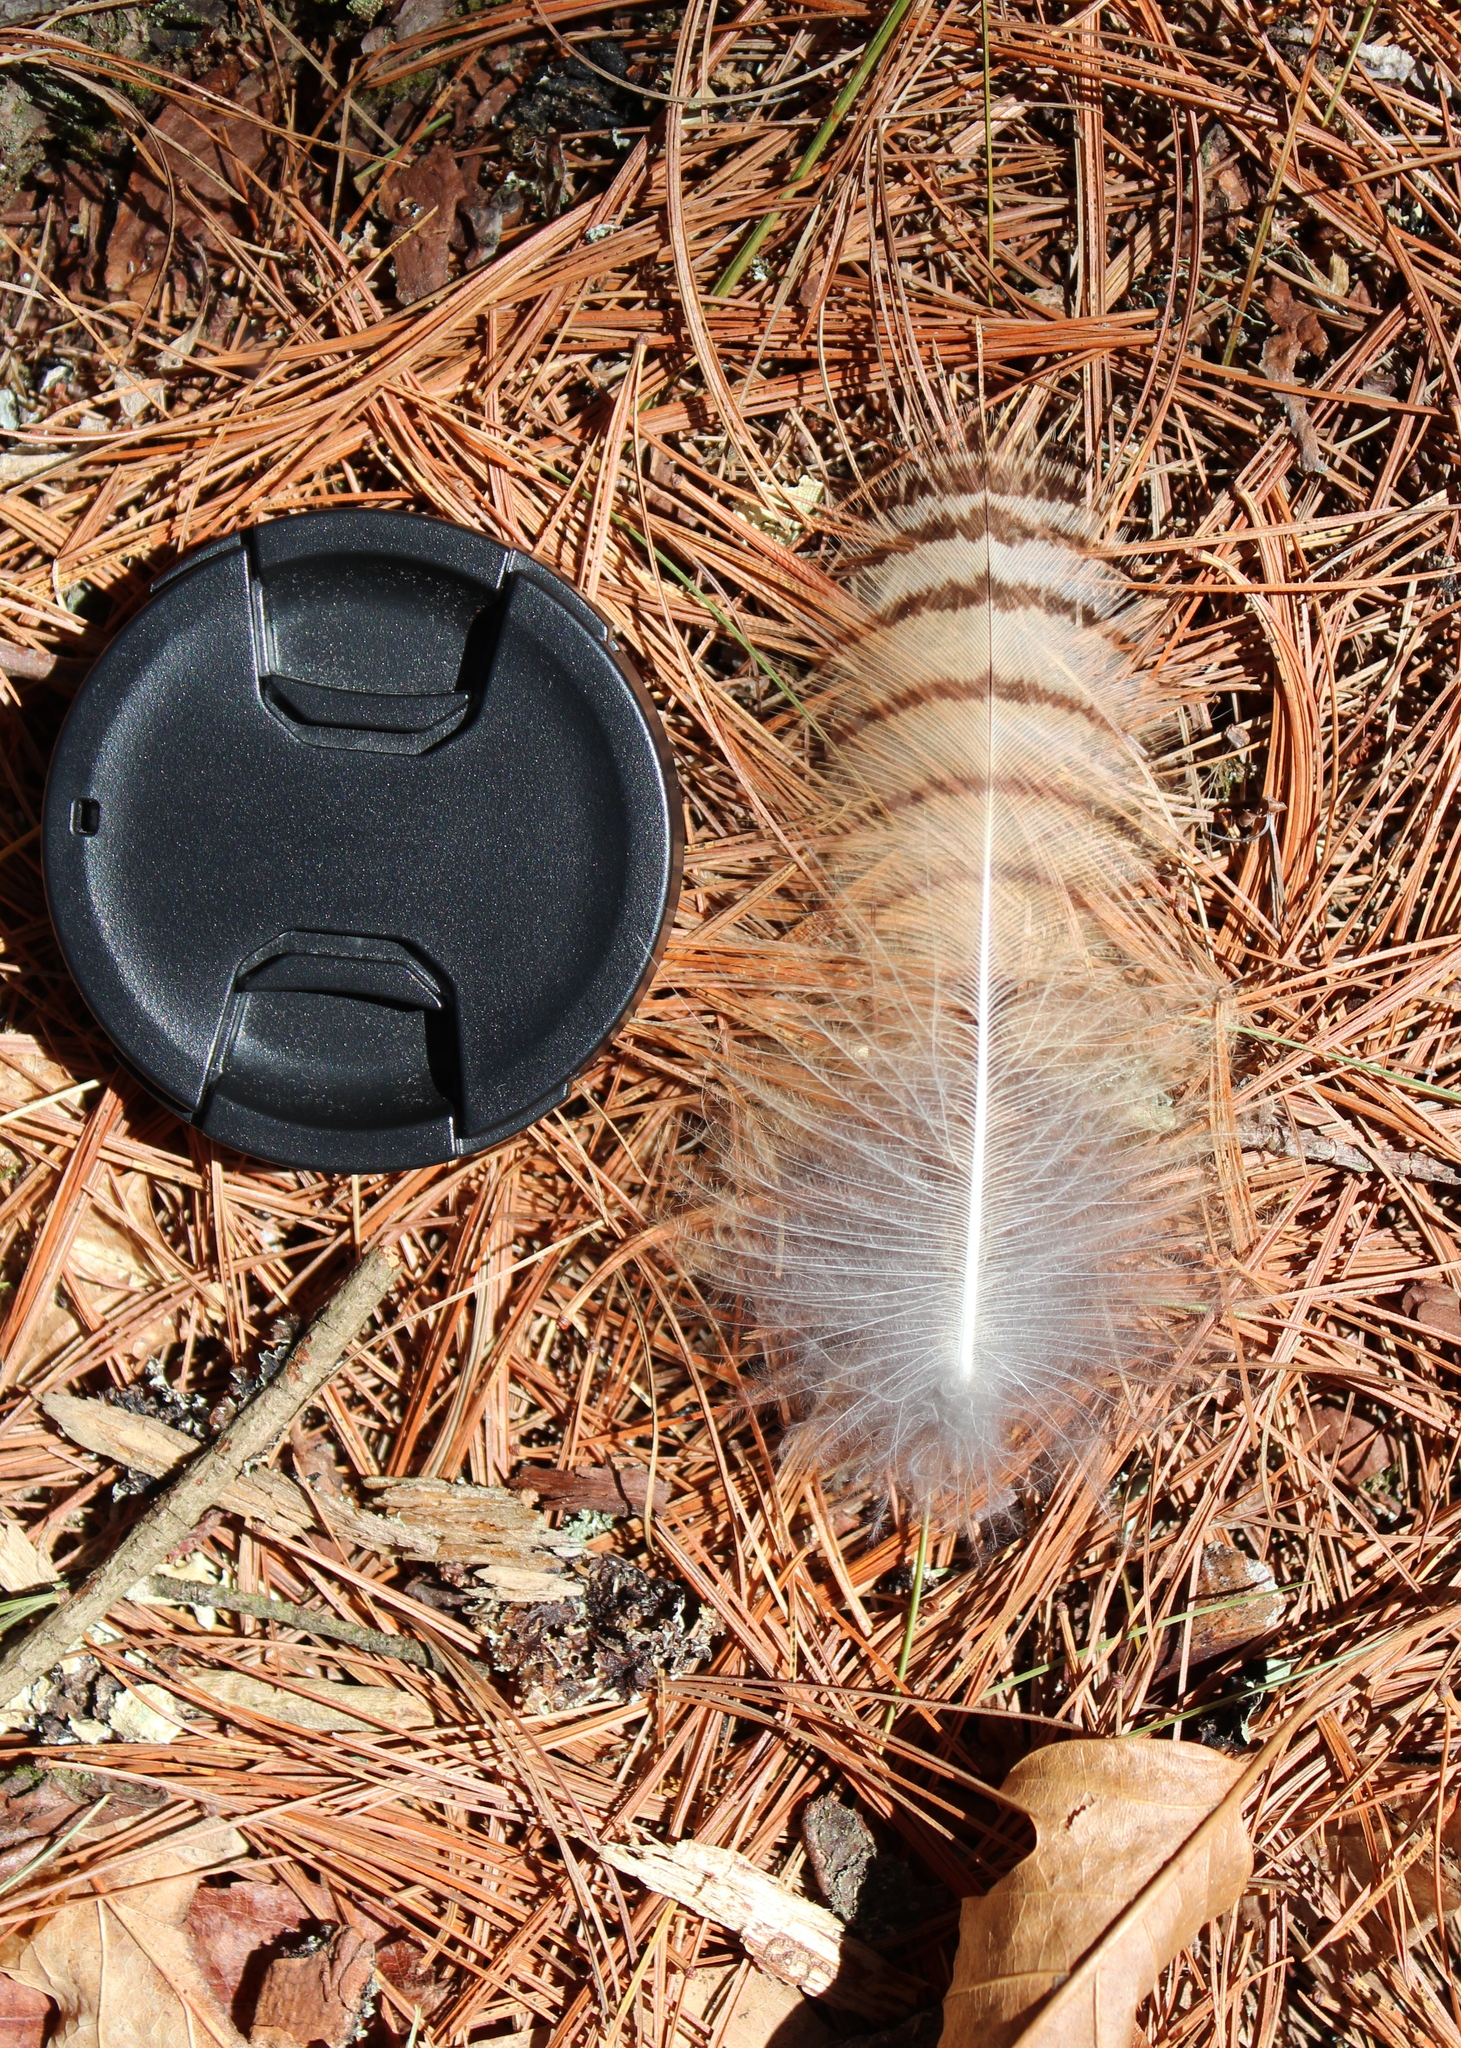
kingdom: Animalia
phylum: Chordata
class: Aves
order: Strigiformes
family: Strigidae
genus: Bubo
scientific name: Bubo virginianus
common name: Great horned owl
